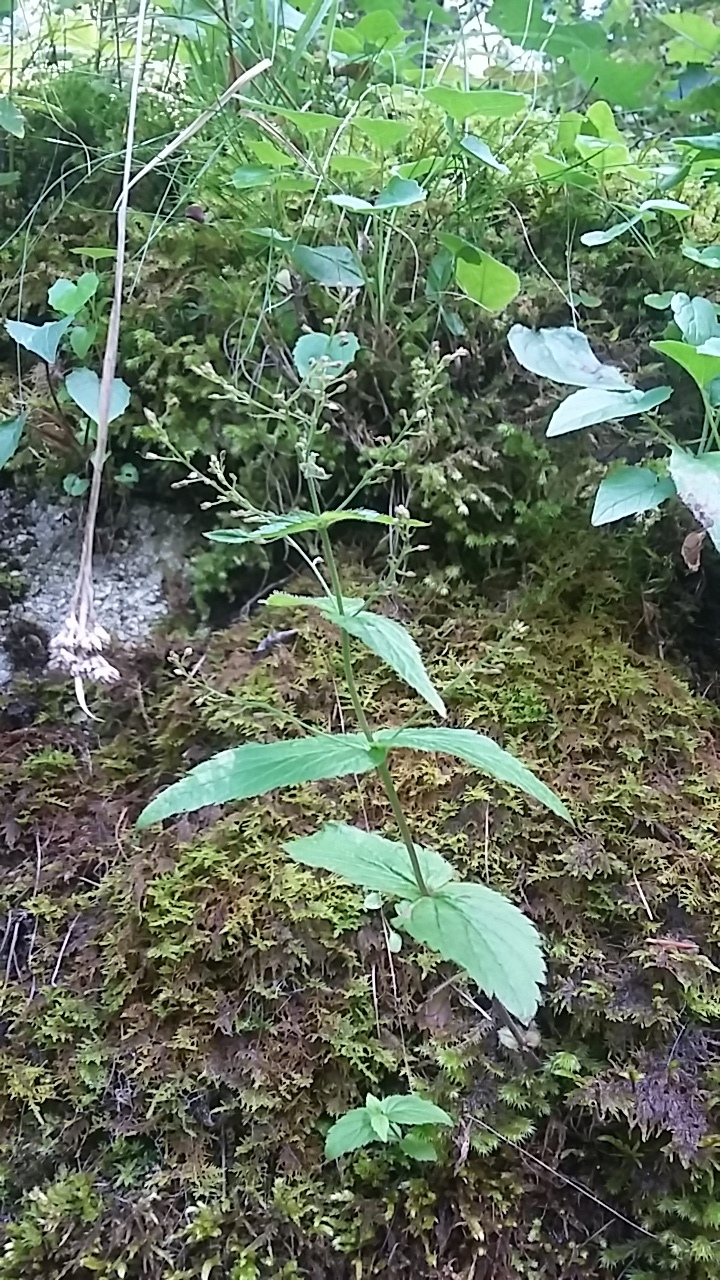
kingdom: Plantae
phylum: Tracheophyta
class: Magnoliopsida
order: Lamiales
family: Plantaginaceae
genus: Veronica
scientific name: Veronica urticifolia
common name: Nettle-leaf speedwell
